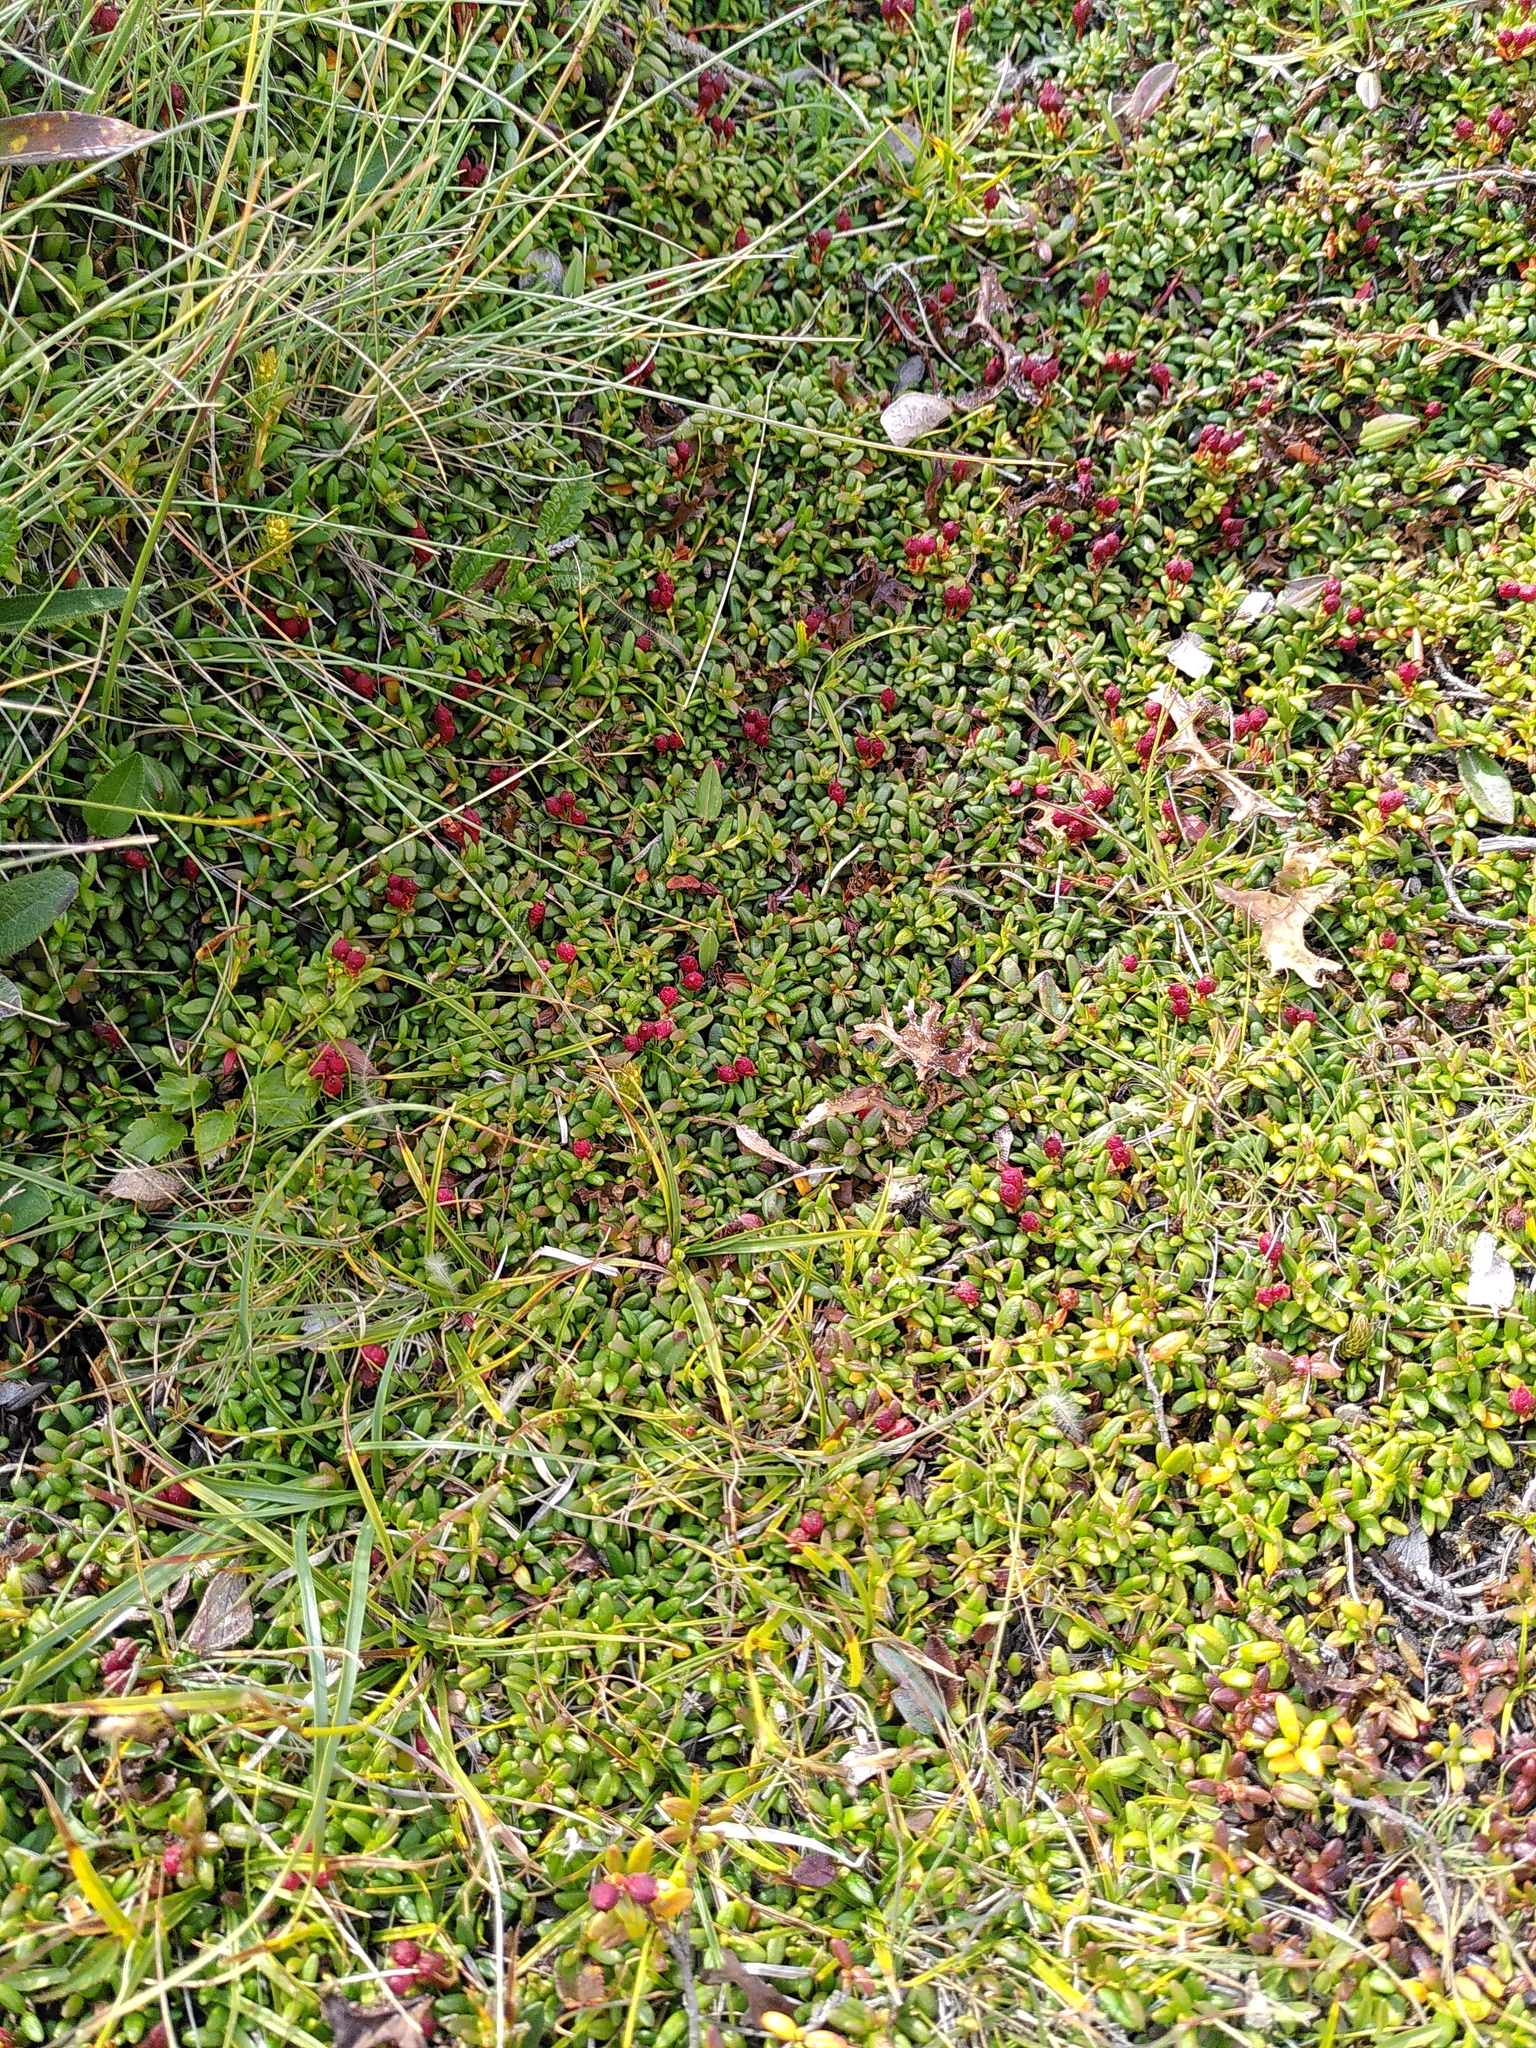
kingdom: Plantae
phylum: Tracheophyta
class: Magnoliopsida
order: Ericales
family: Ericaceae
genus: Kalmia
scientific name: Kalmia procumbens
